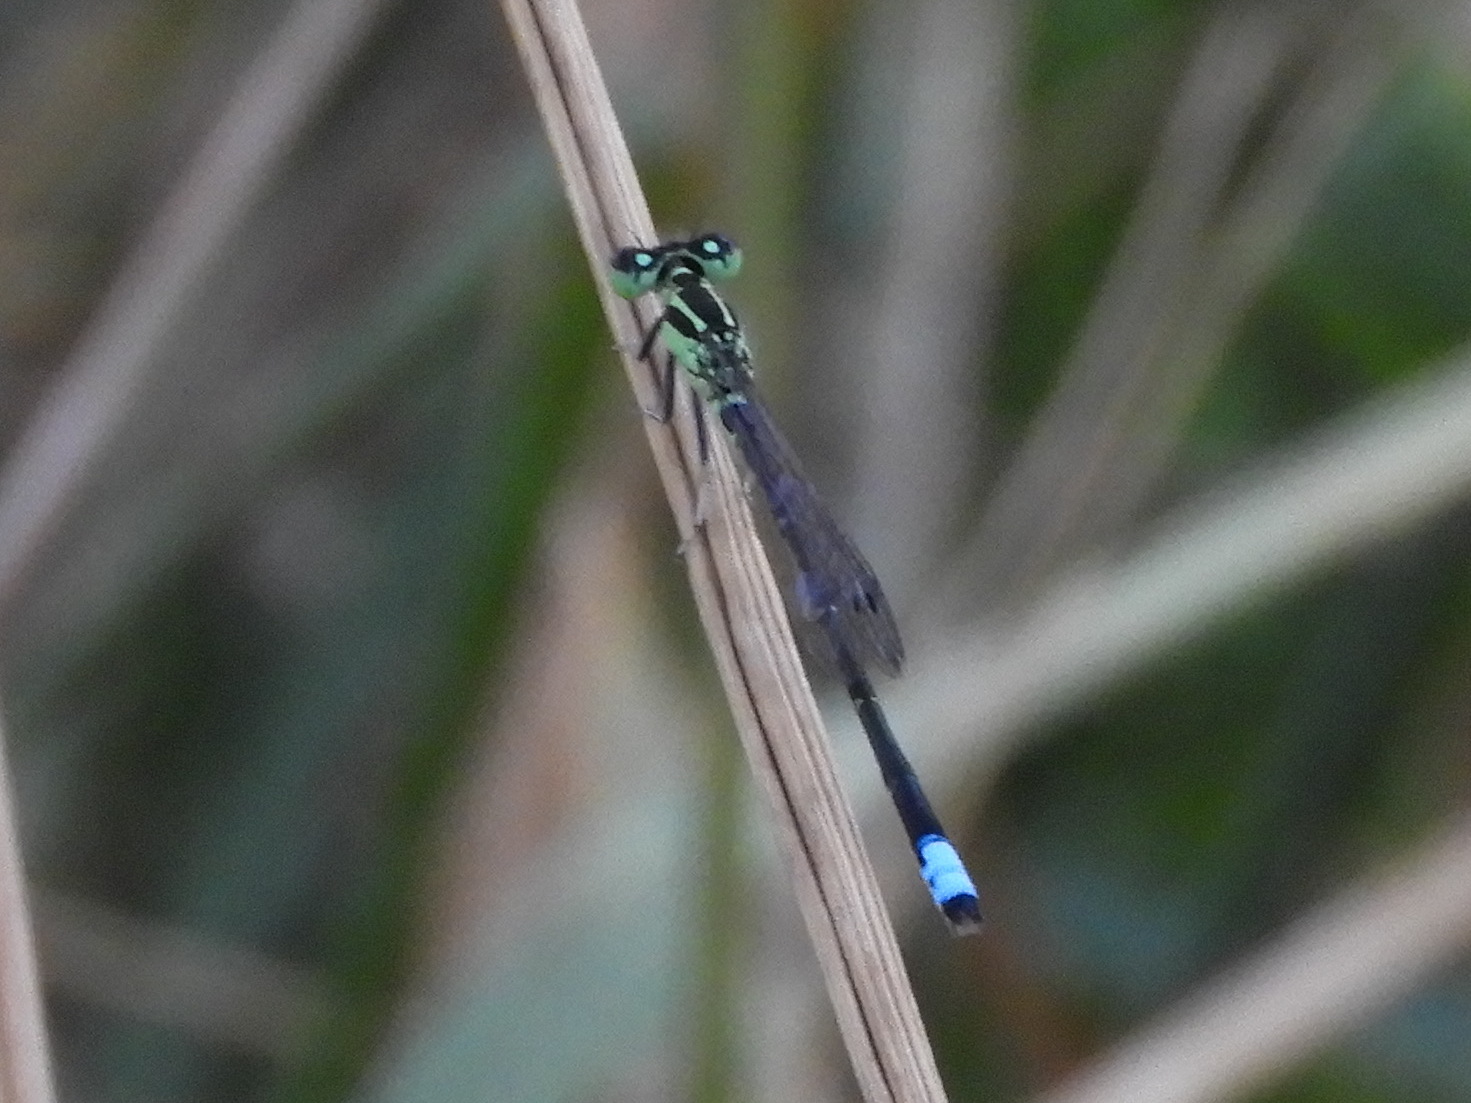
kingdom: Animalia
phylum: Arthropoda
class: Insecta
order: Odonata
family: Coenagrionidae
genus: Ischnura
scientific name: Ischnura verticalis
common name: Eastern forktail
